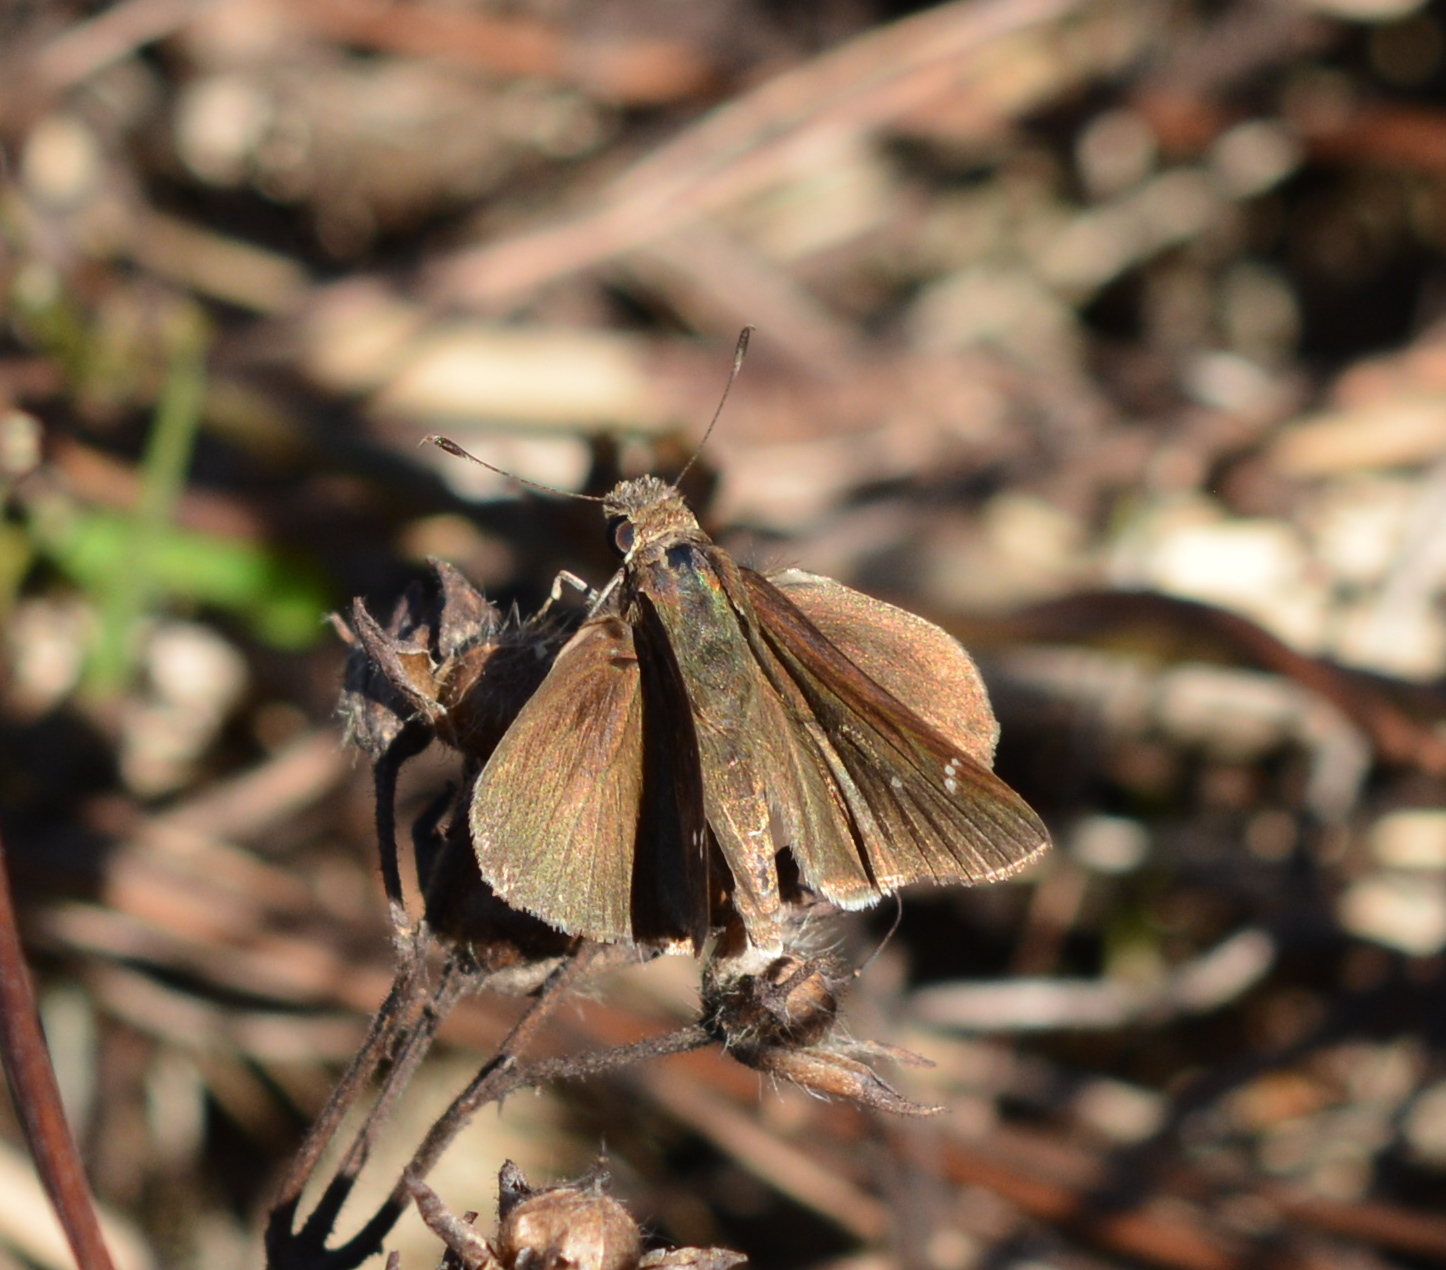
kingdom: Animalia
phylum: Arthropoda
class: Insecta
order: Lepidoptera
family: Hesperiidae
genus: Lerema
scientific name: Lerema accius
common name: Clouded skipper
